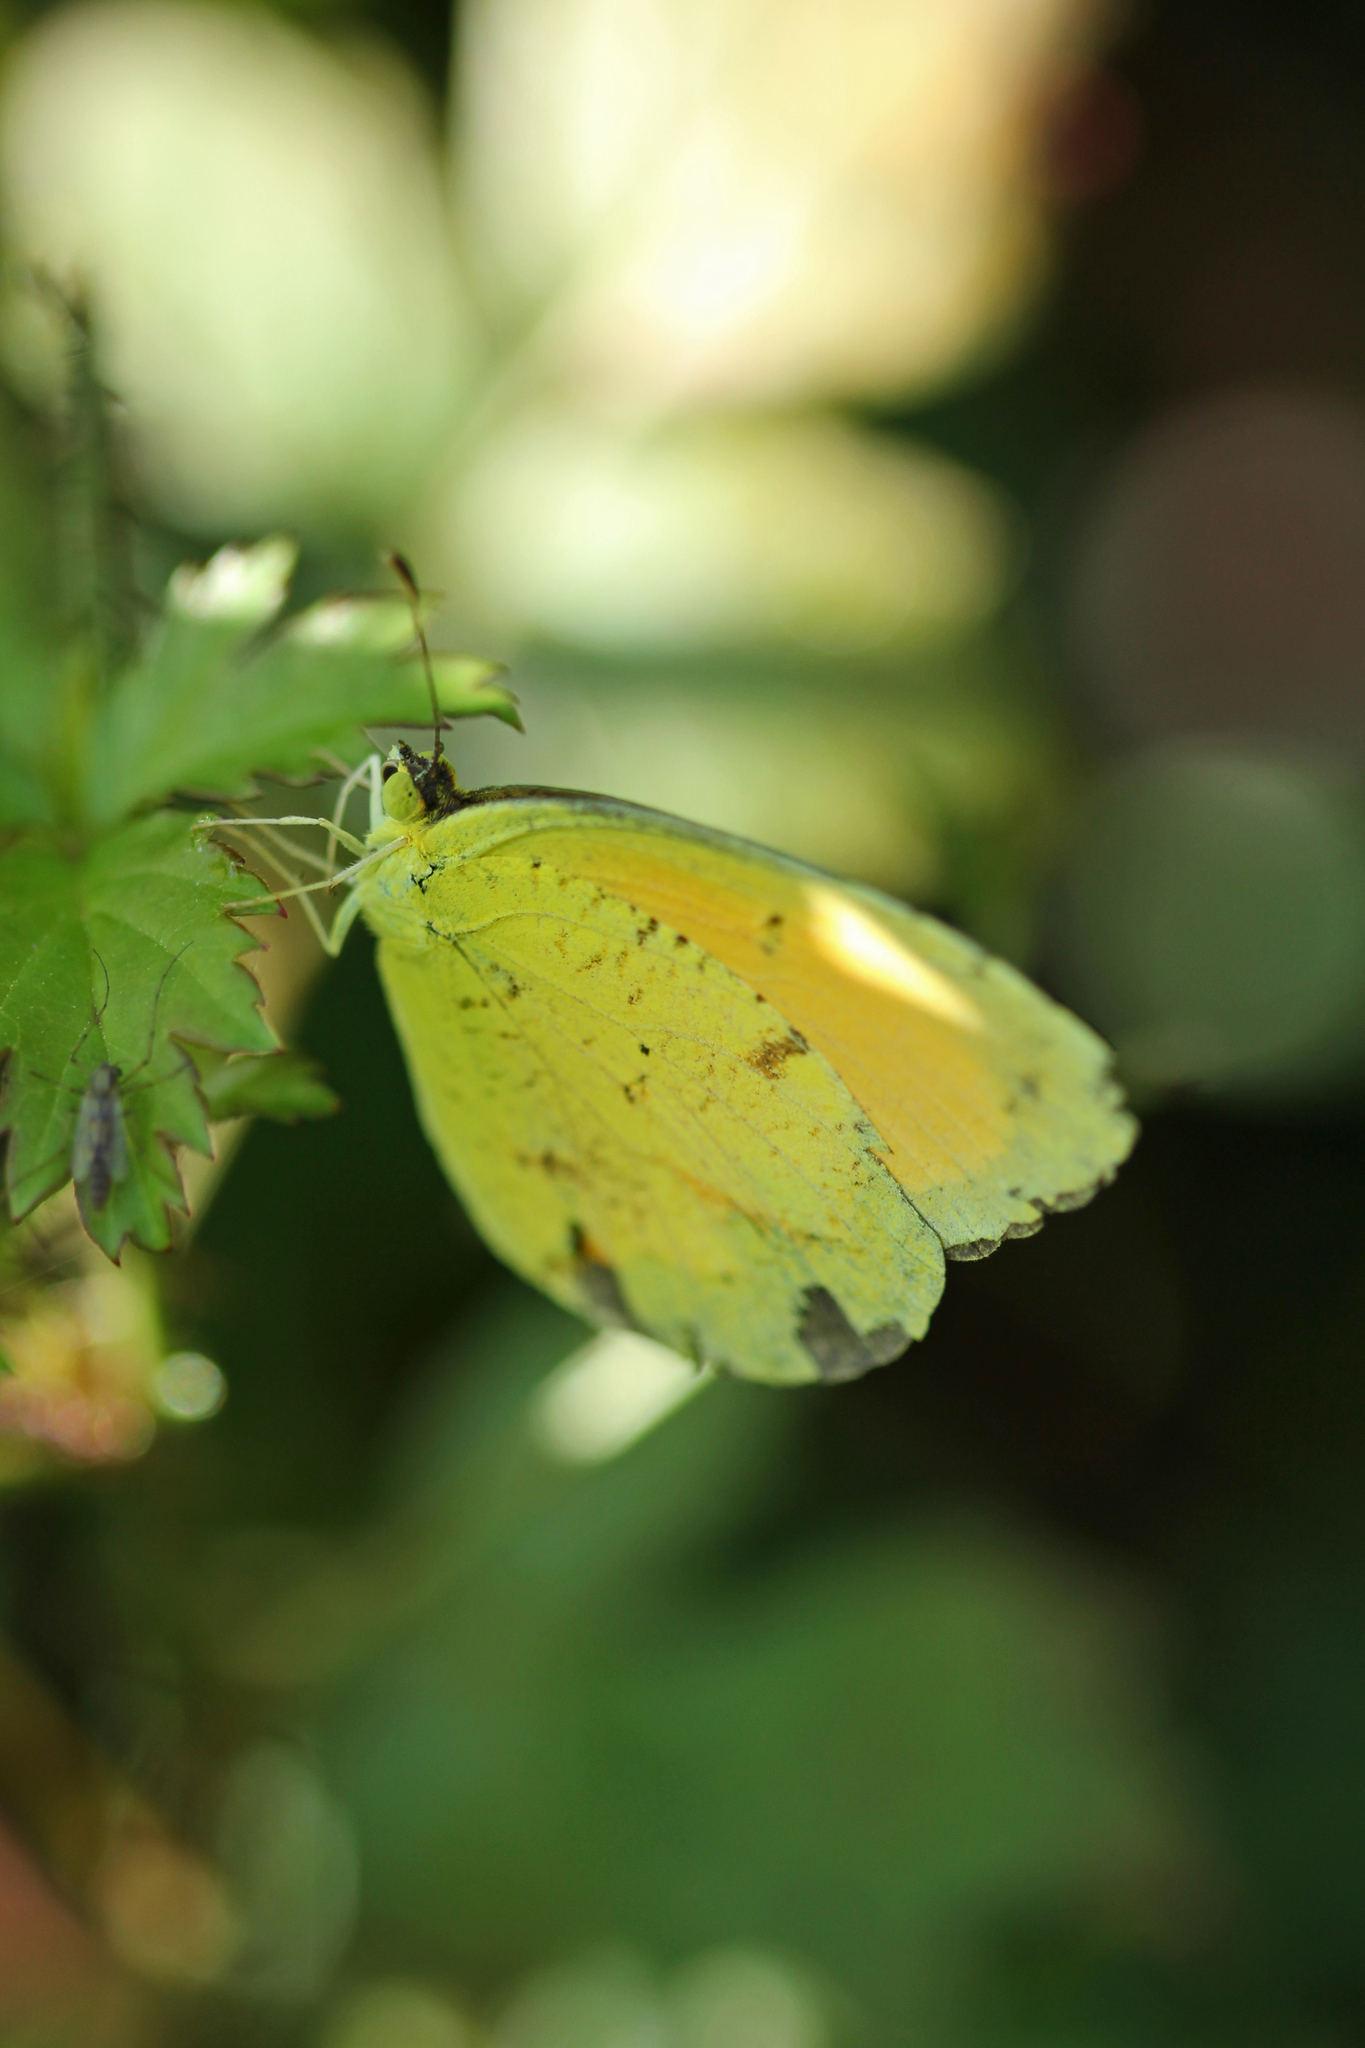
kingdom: Animalia
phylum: Arthropoda
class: Insecta
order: Lepidoptera
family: Pieridae
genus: Abaeis
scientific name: Abaeis nicippe
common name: Sleepy orange
